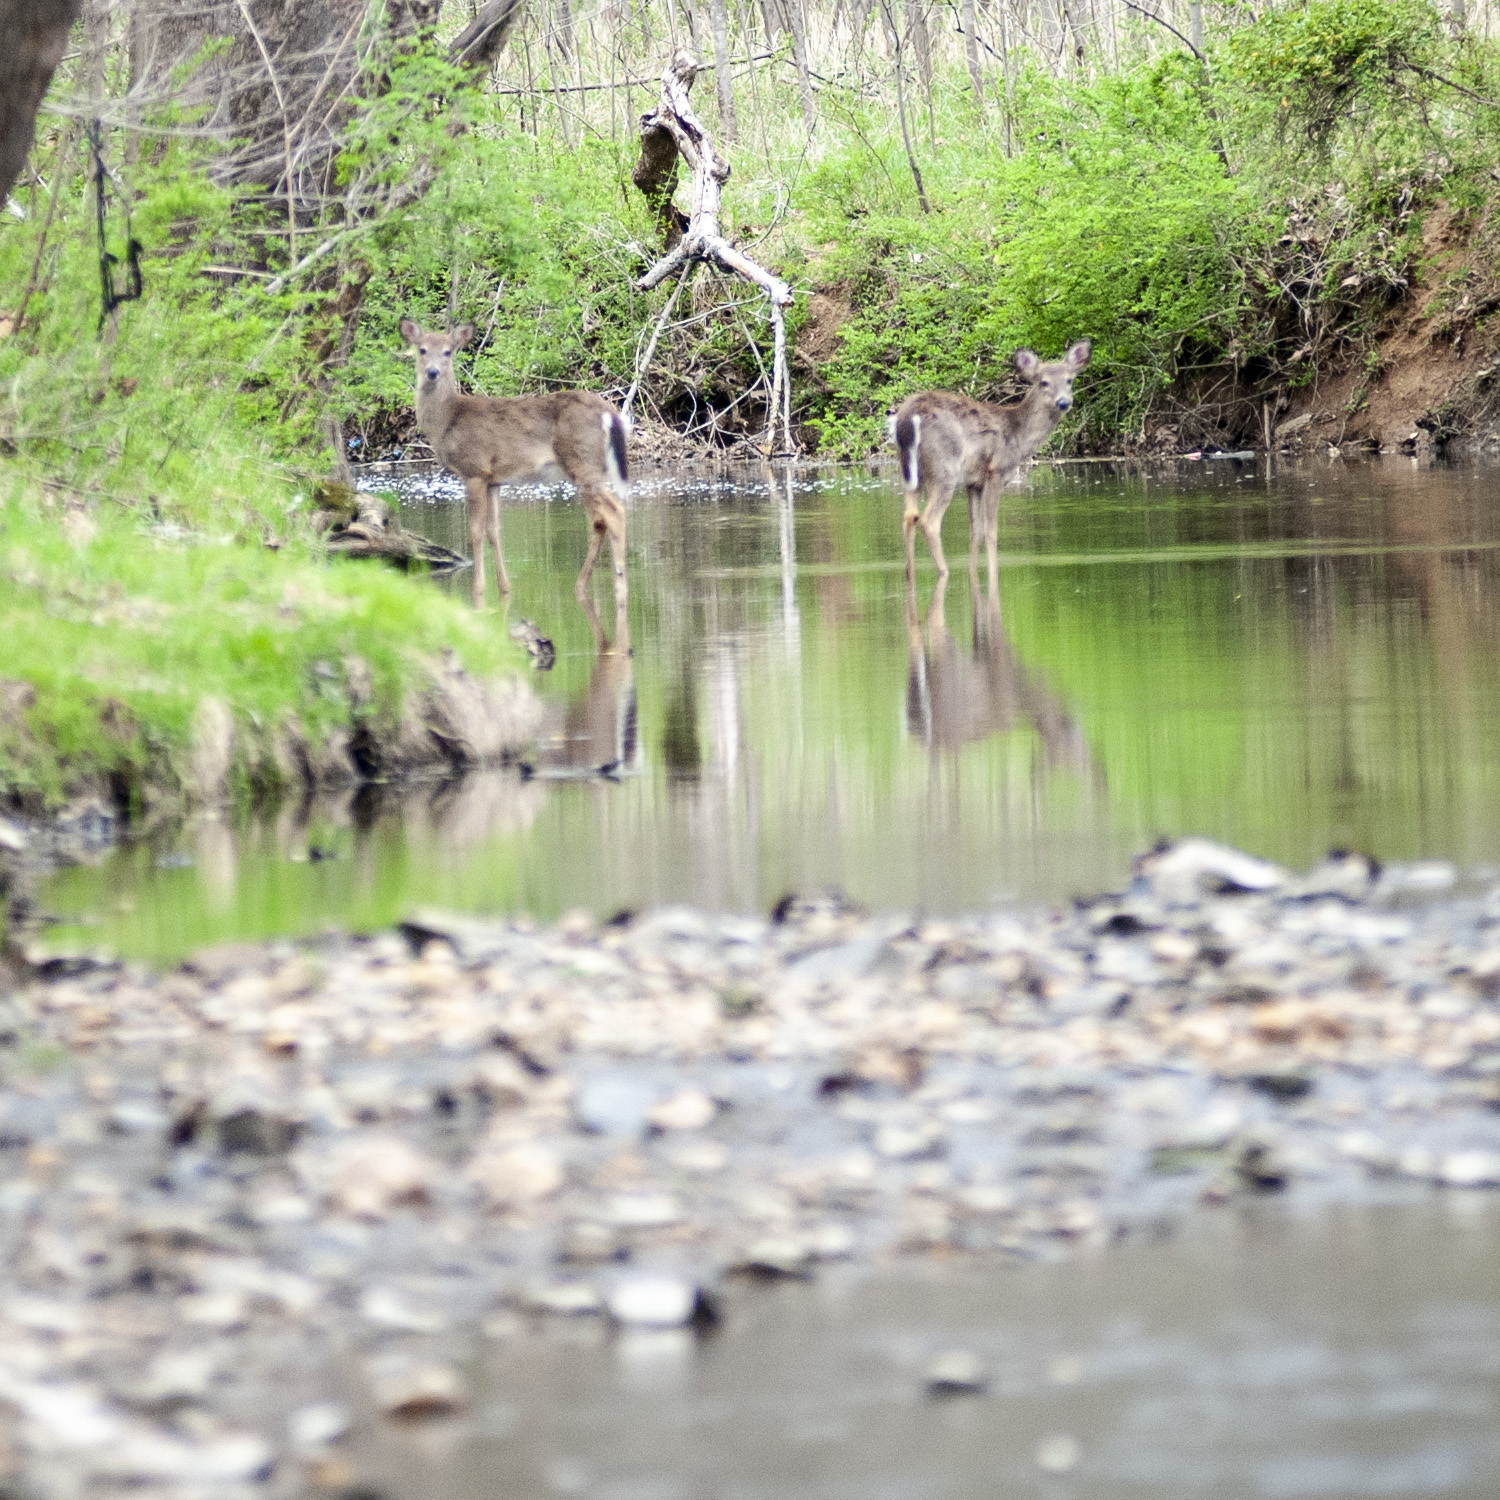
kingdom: Animalia
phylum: Chordata
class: Mammalia
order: Artiodactyla
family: Cervidae
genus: Odocoileus
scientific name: Odocoileus virginianus
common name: White-tailed deer
